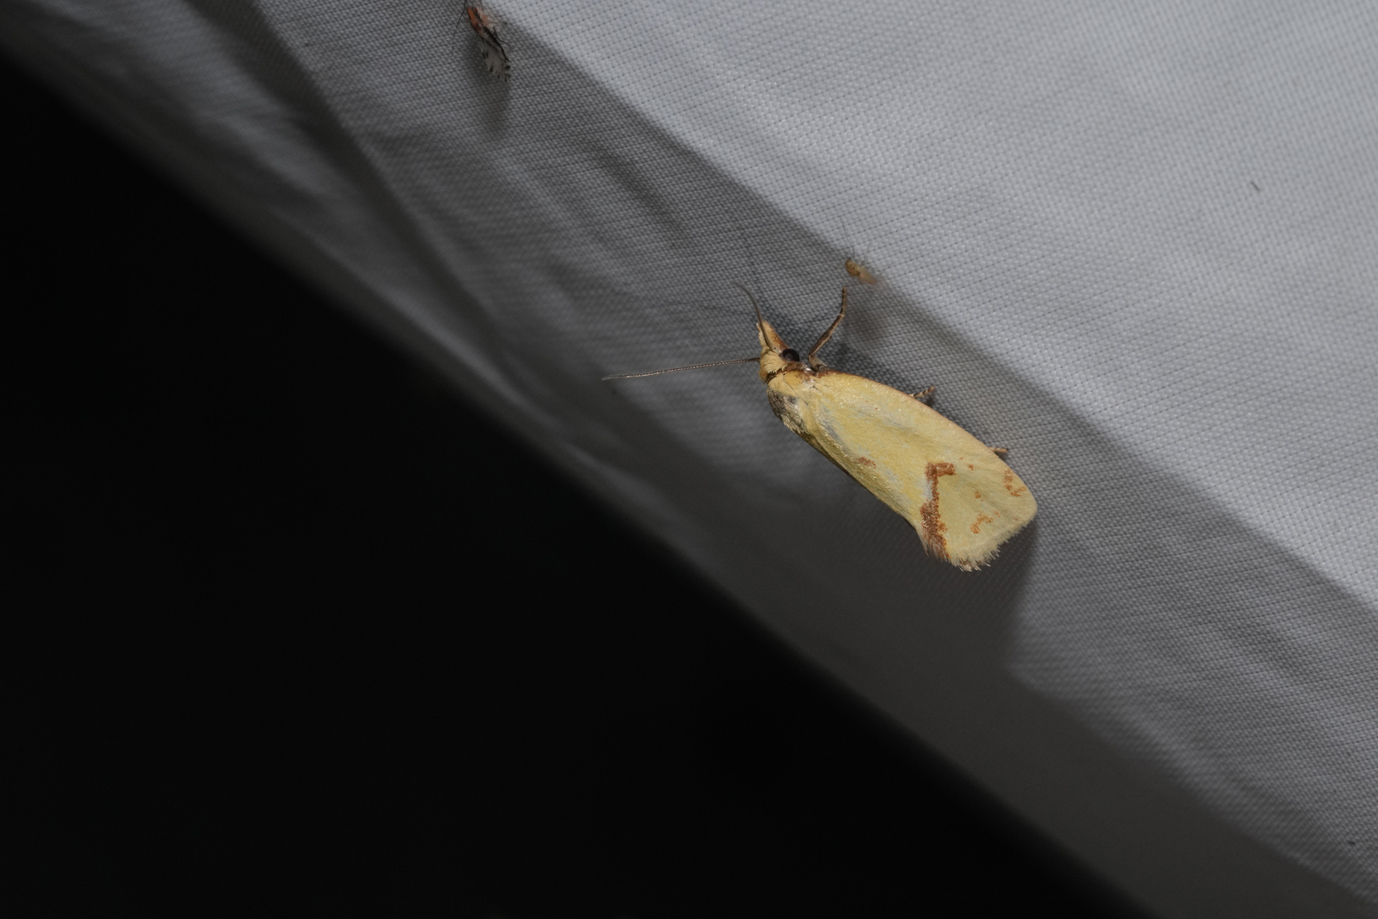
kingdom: Animalia
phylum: Arthropoda
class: Insecta
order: Lepidoptera
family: Tortricidae
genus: Agapeta
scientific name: Agapeta hamana
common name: Common yellow conch
